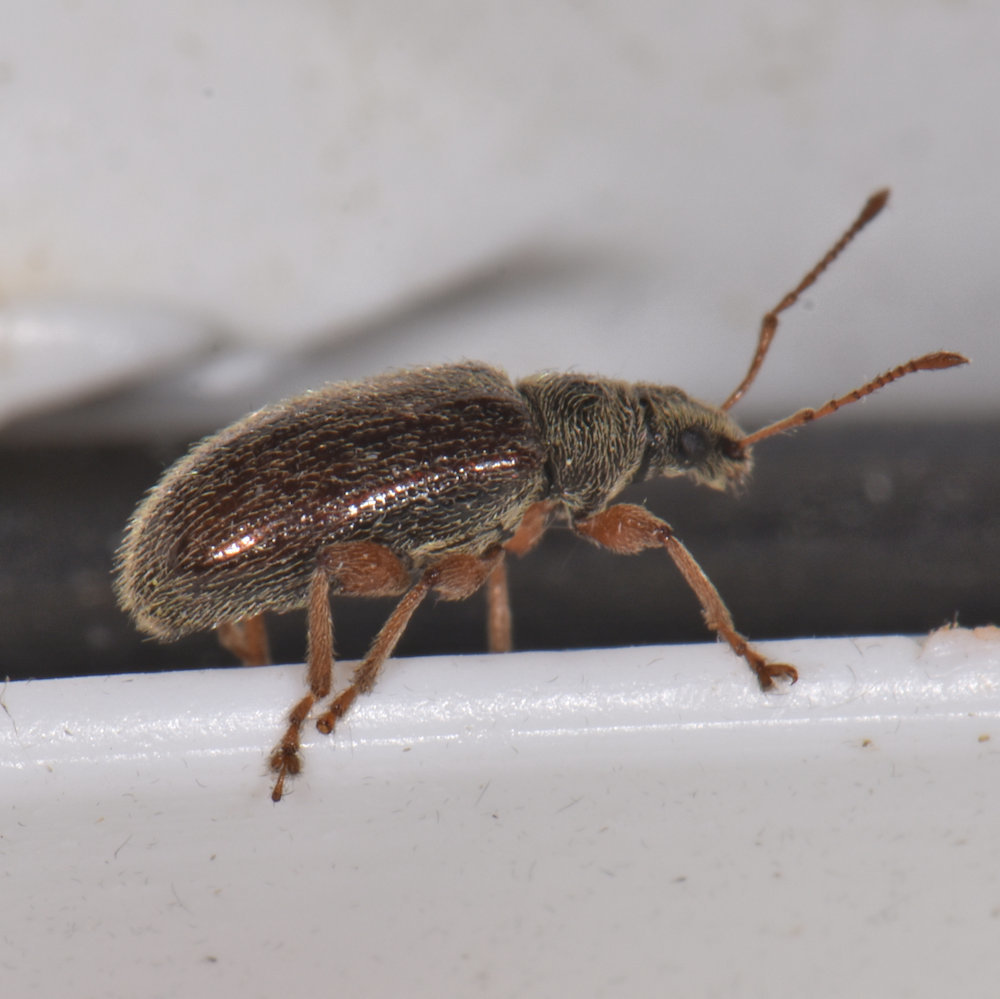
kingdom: Animalia
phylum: Arthropoda
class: Insecta
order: Coleoptera
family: Curculionidae
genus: Phyllobius
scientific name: Phyllobius oblongus
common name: Brown leaf weevil
